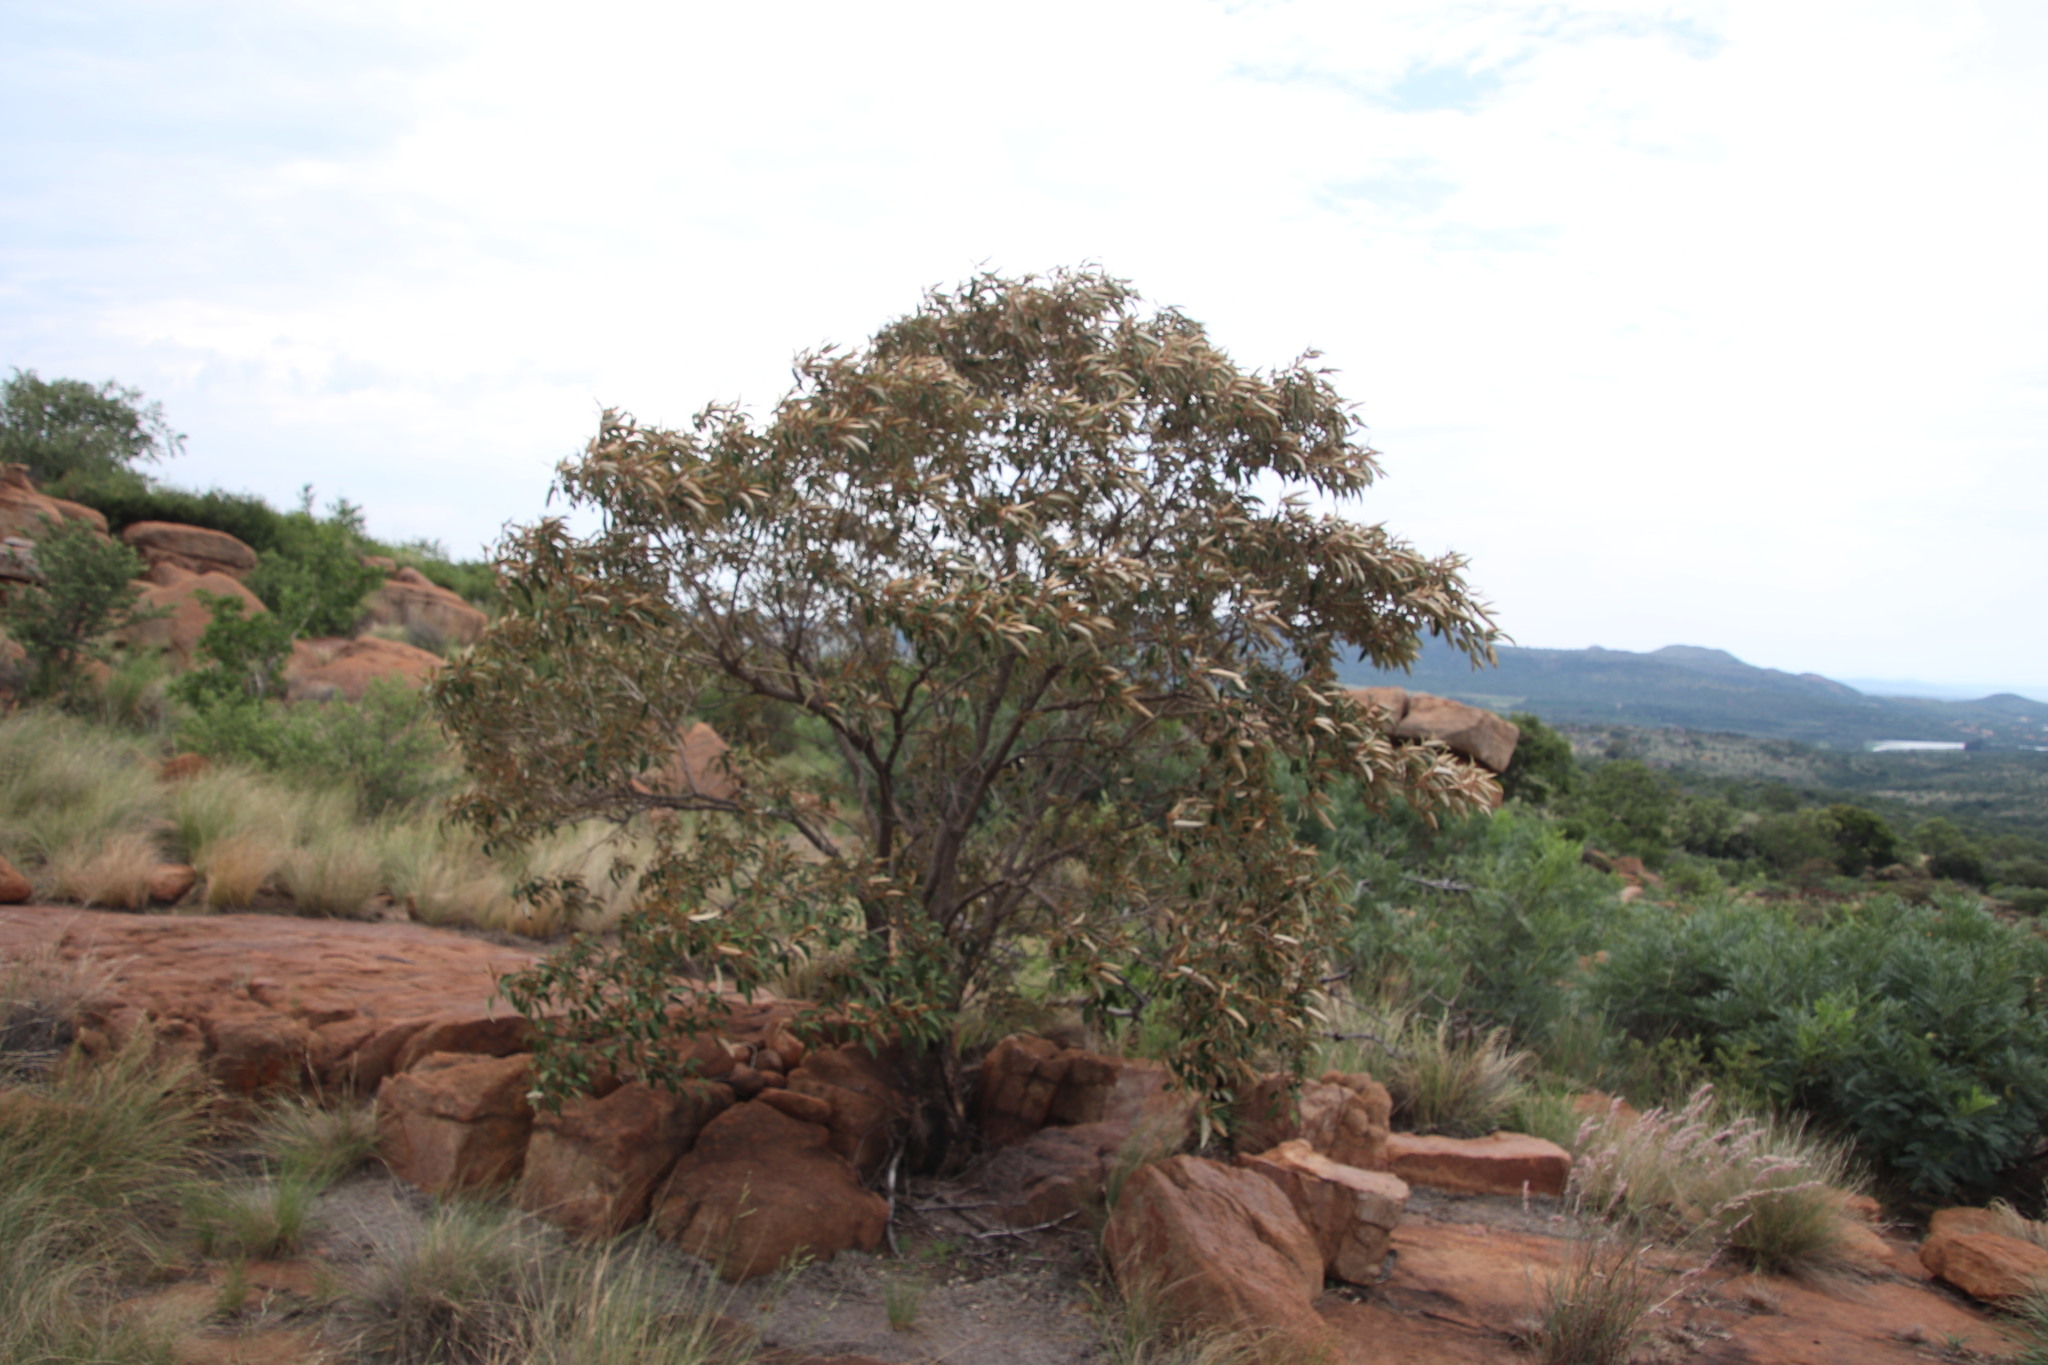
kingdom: Plantae
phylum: Tracheophyta
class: Magnoliopsida
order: Malpighiales
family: Euphorbiaceae
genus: Croton
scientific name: Croton gratissimus
